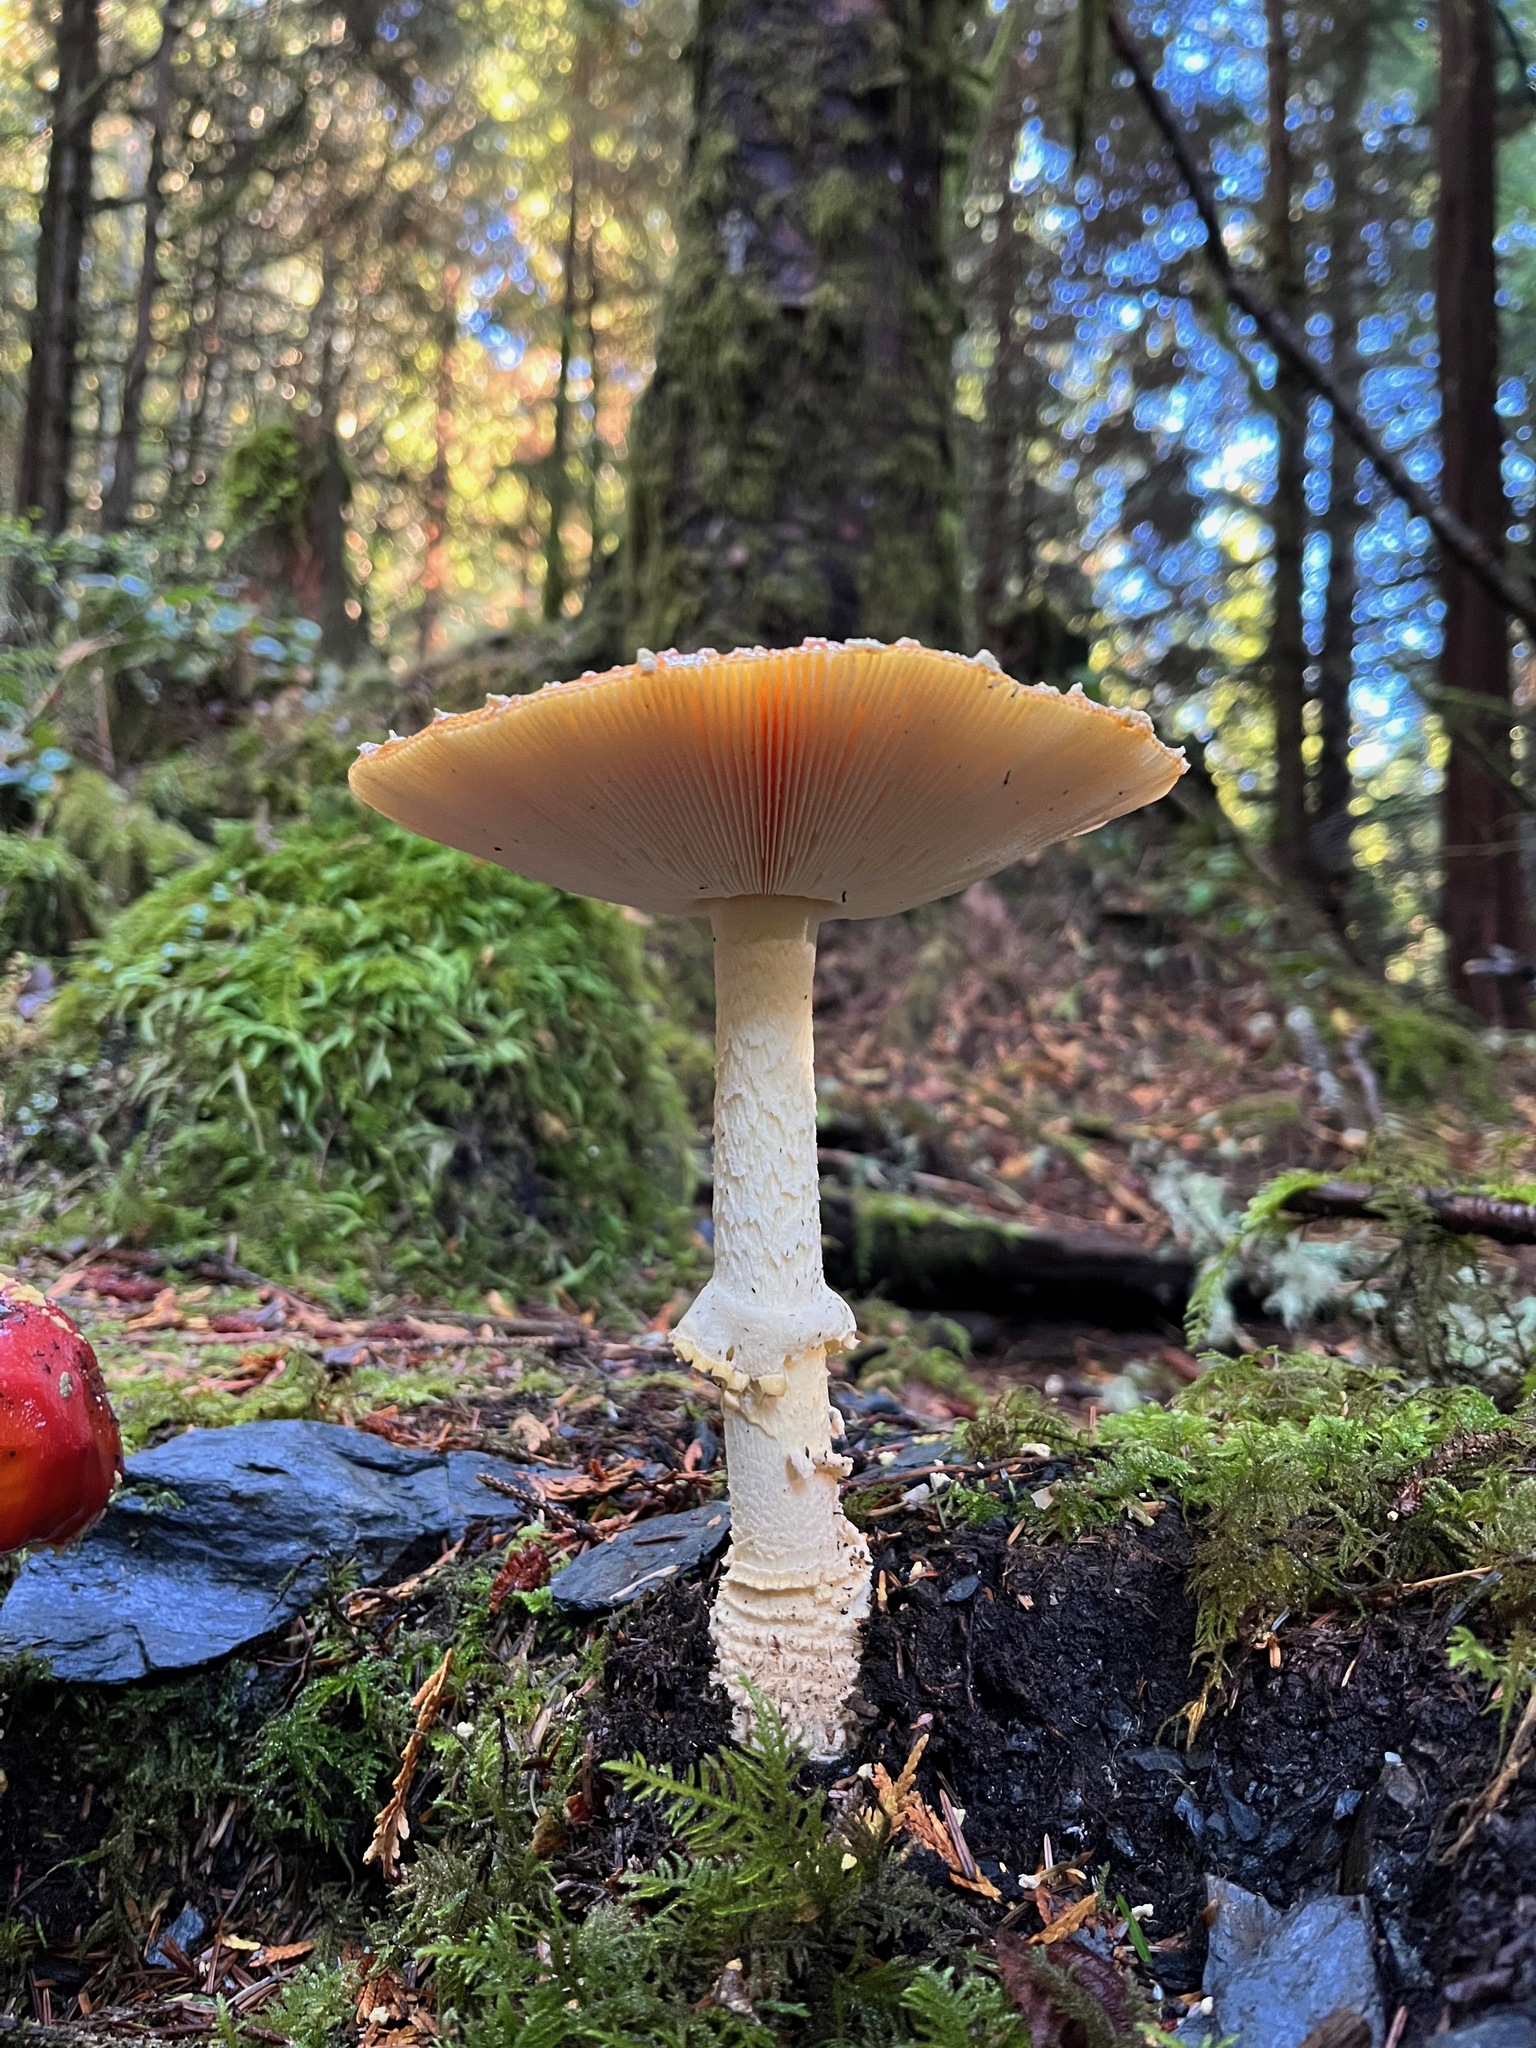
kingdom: Fungi
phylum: Basidiomycota
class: Agaricomycetes
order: Agaricales
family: Amanitaceae
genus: Amanita
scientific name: Amanita muscaria
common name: Fly agaric
